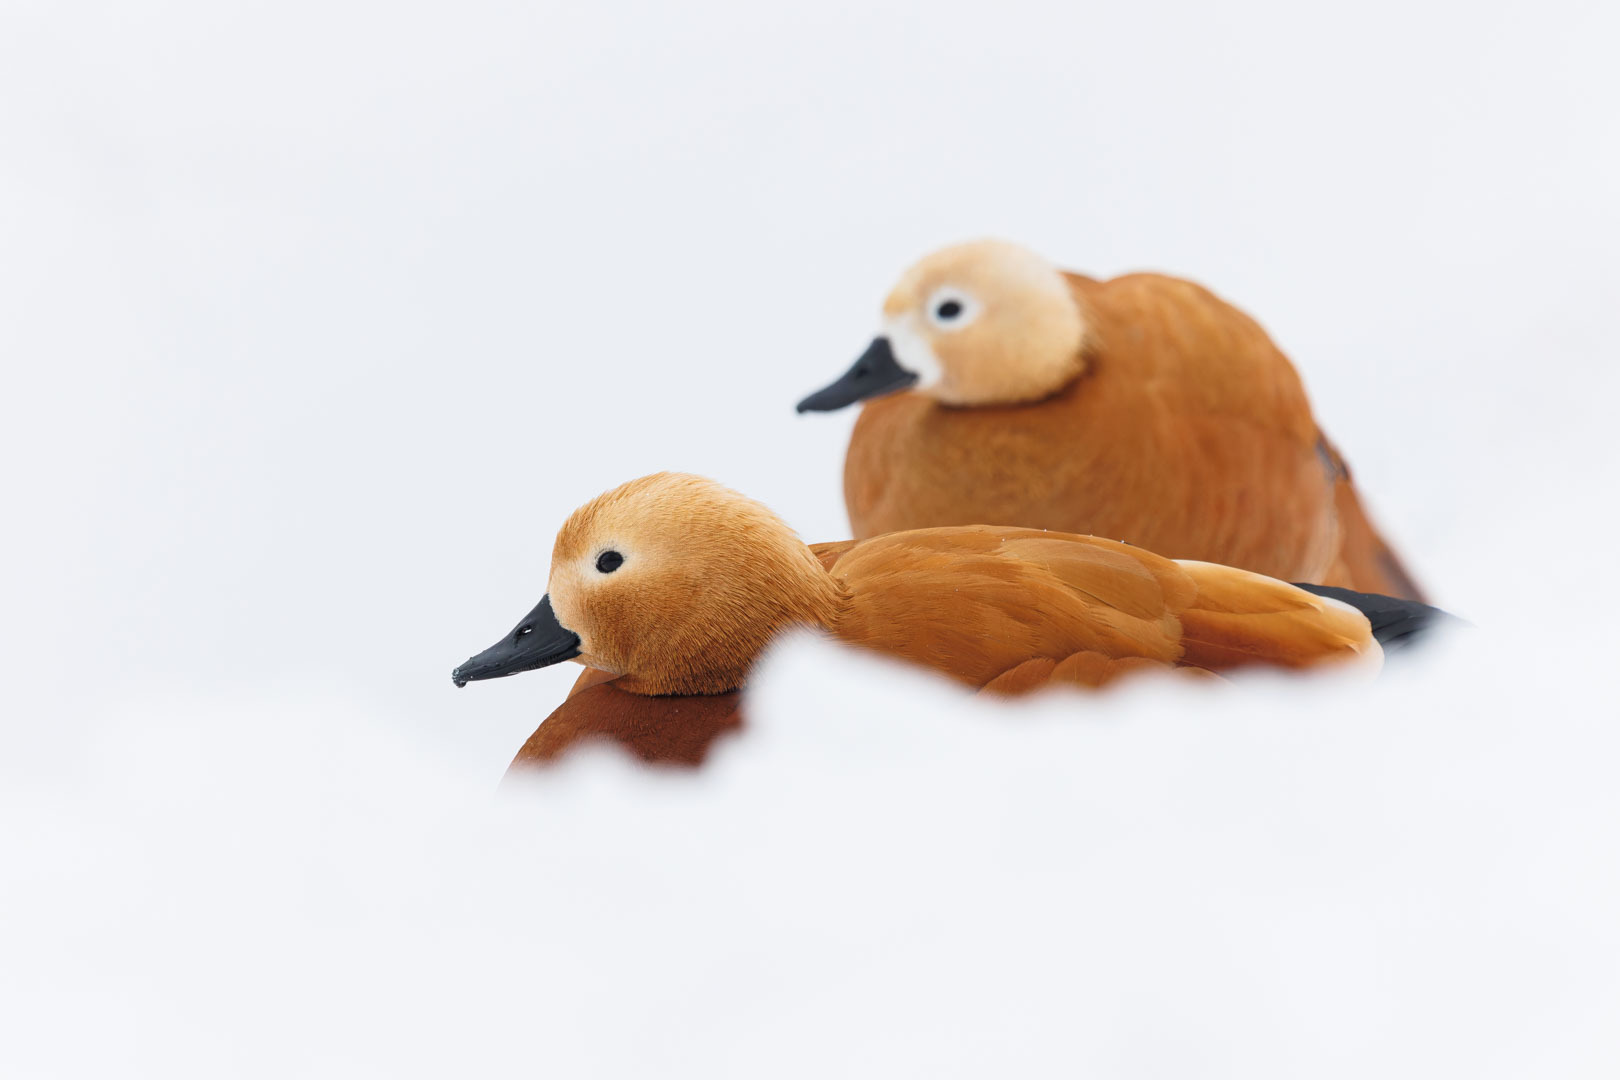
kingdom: Animalia
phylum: Chordata
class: Aves
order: Anseriformes
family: Anatidae
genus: Tadorna
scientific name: Tadorna ferruginea
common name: Ruddy shelduck
